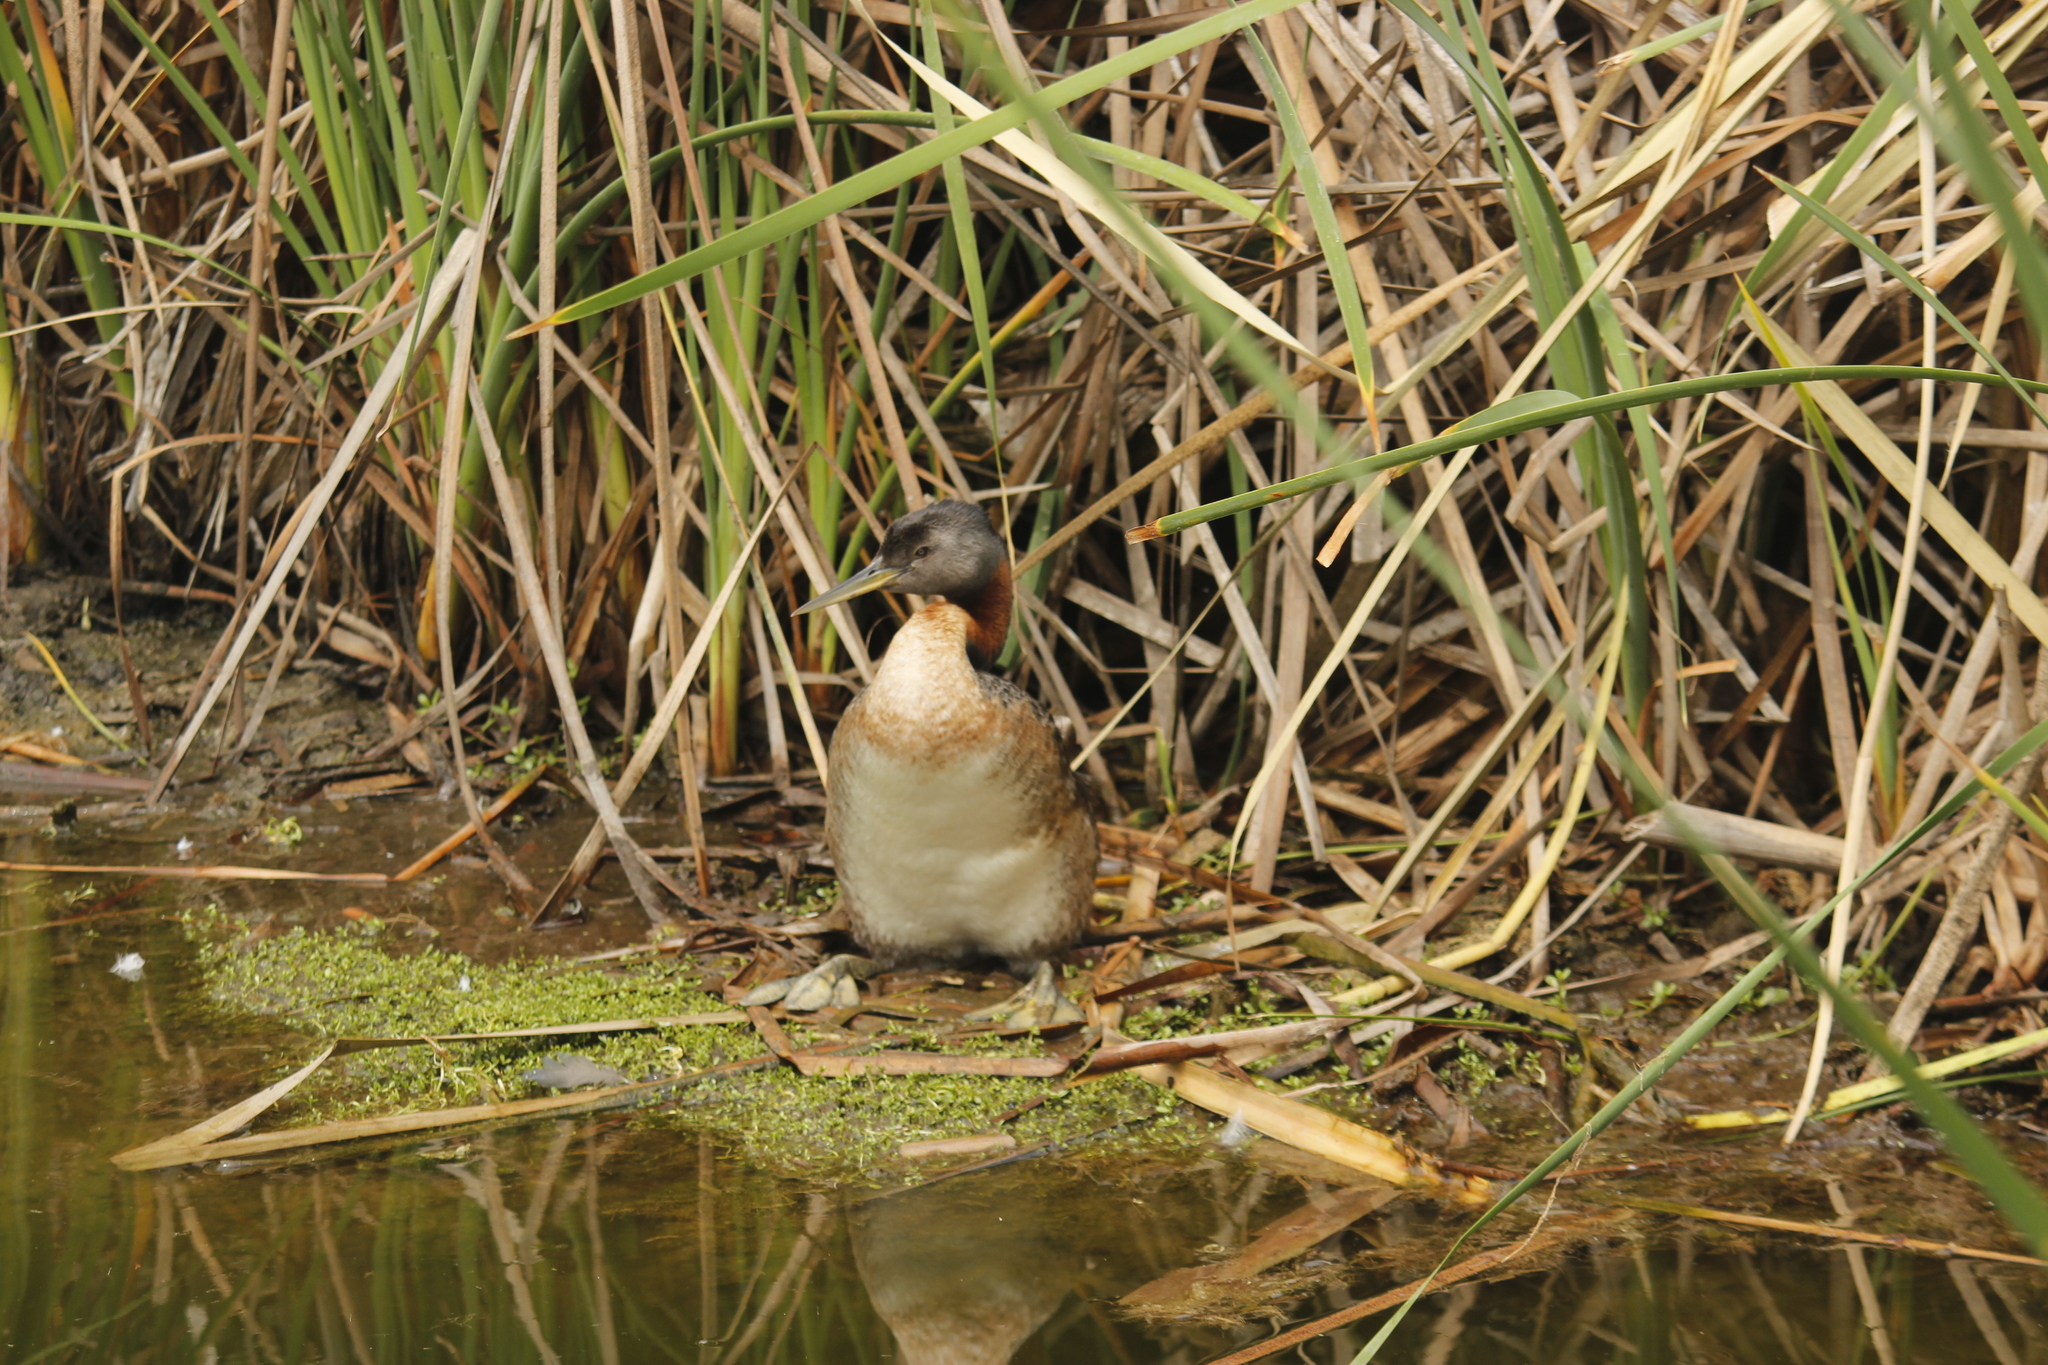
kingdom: Animalia
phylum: Chordata
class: Aves
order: Podicipediformes
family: Podicipedidae
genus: Podiceps
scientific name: Podiceps major
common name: Great grebe
